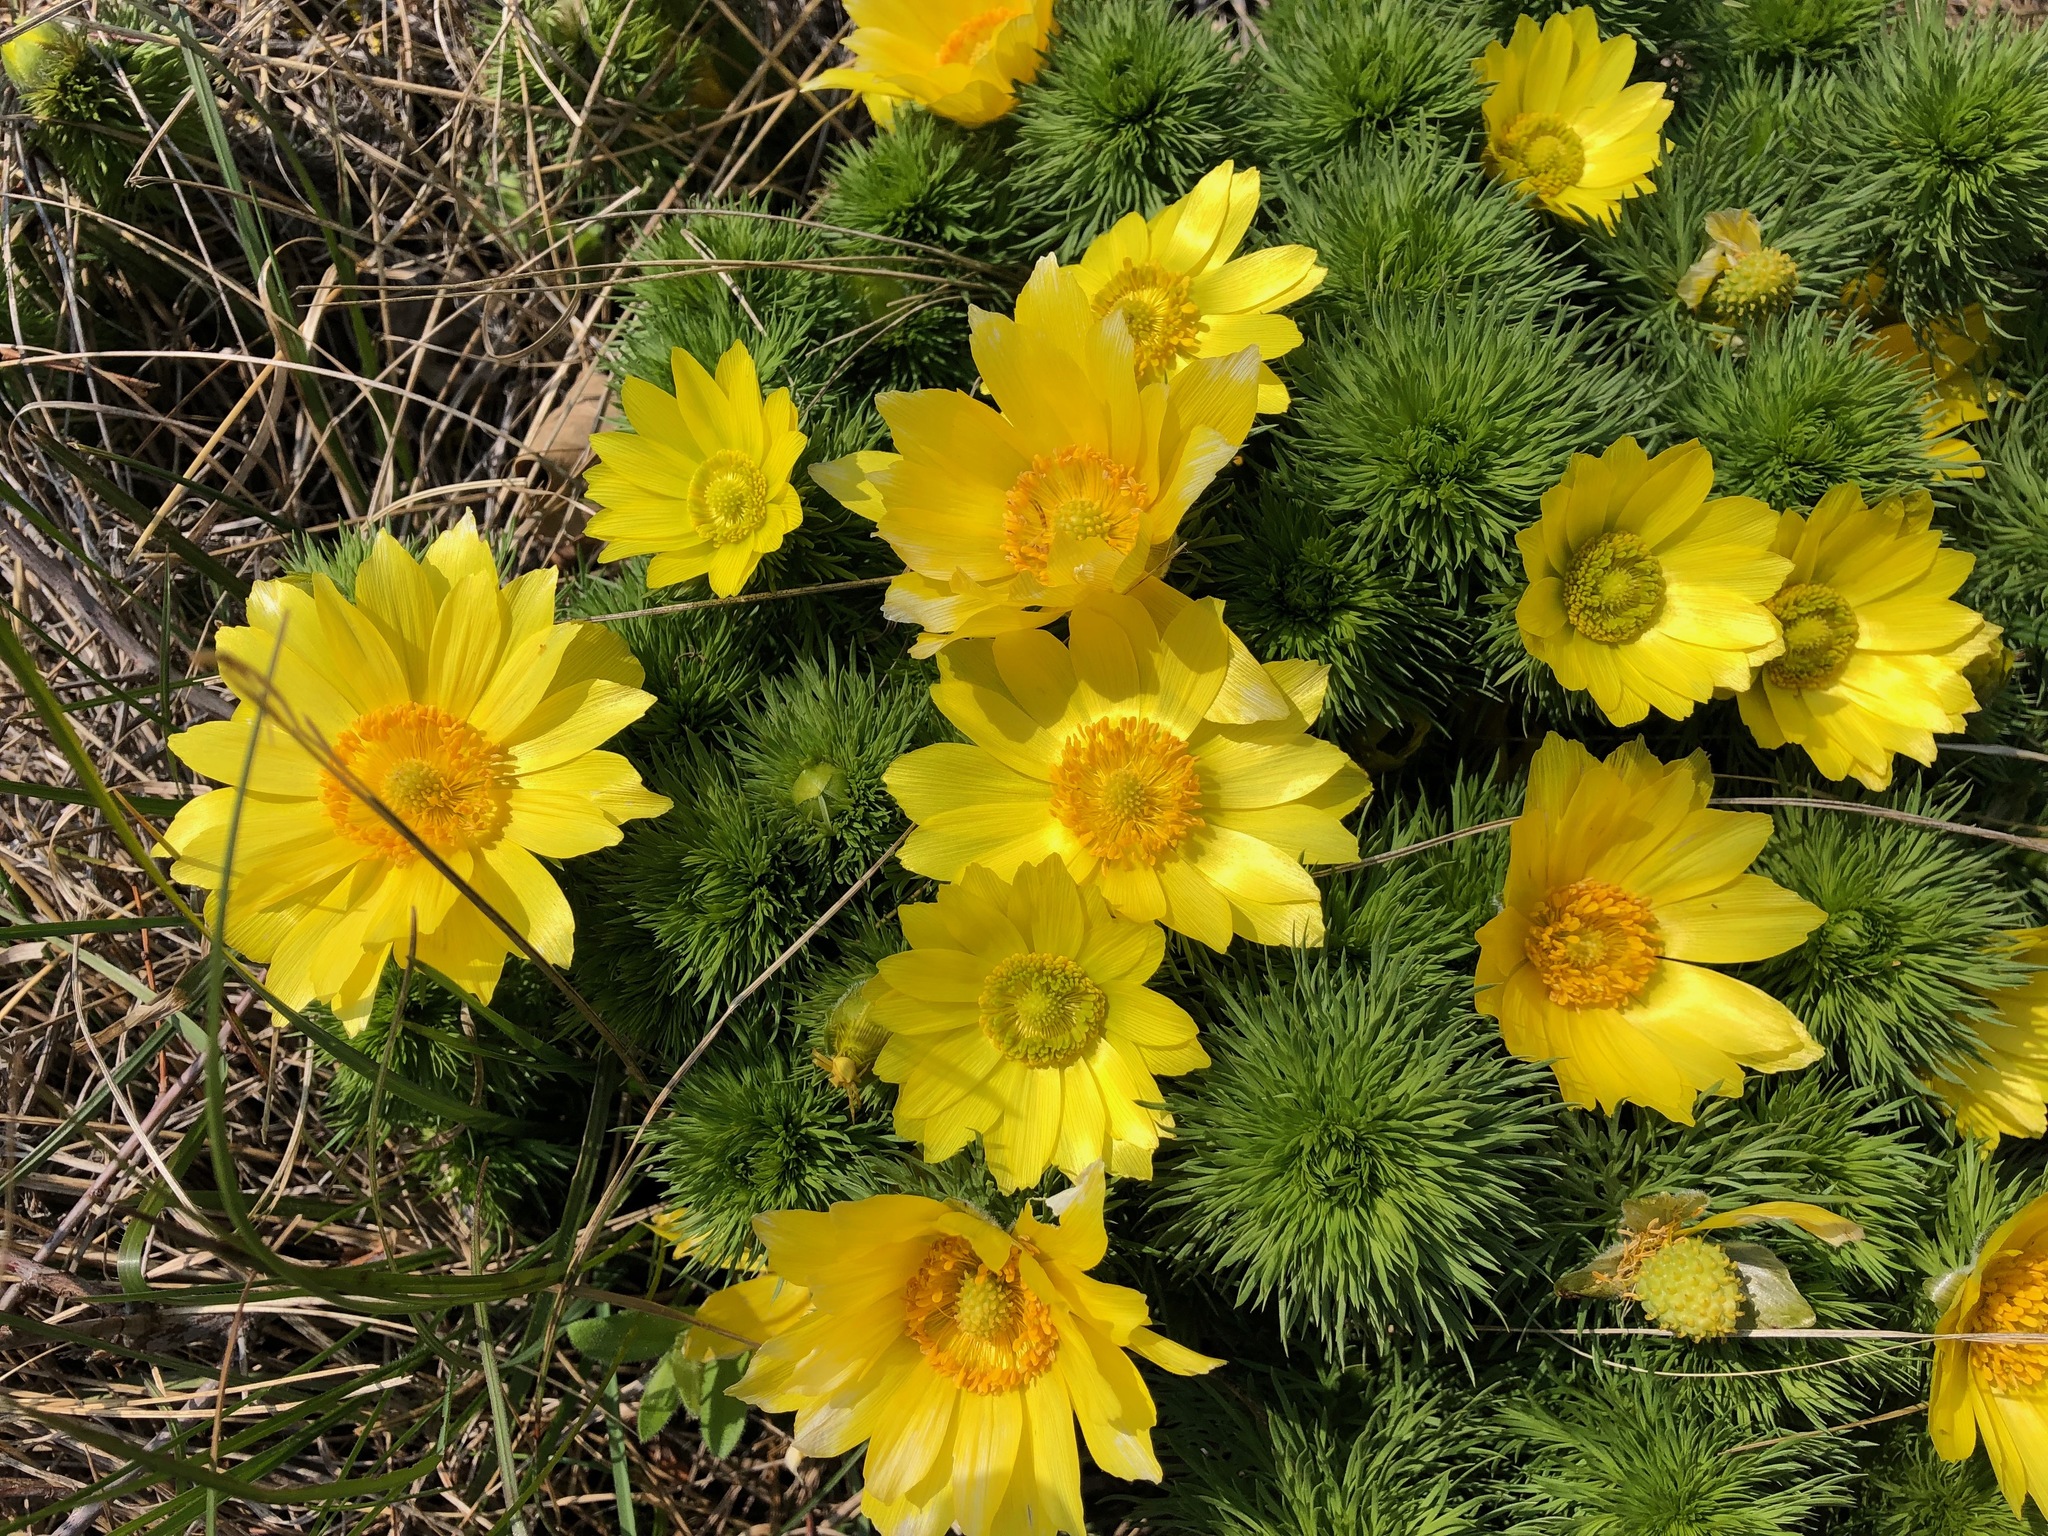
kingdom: Plantae
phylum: Tracheophyta
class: Magnoliopsida
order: Ranunculales
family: Ranunculaceae
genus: Adonis
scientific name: Adonis vernalis
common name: Yellow pheasants-eye
